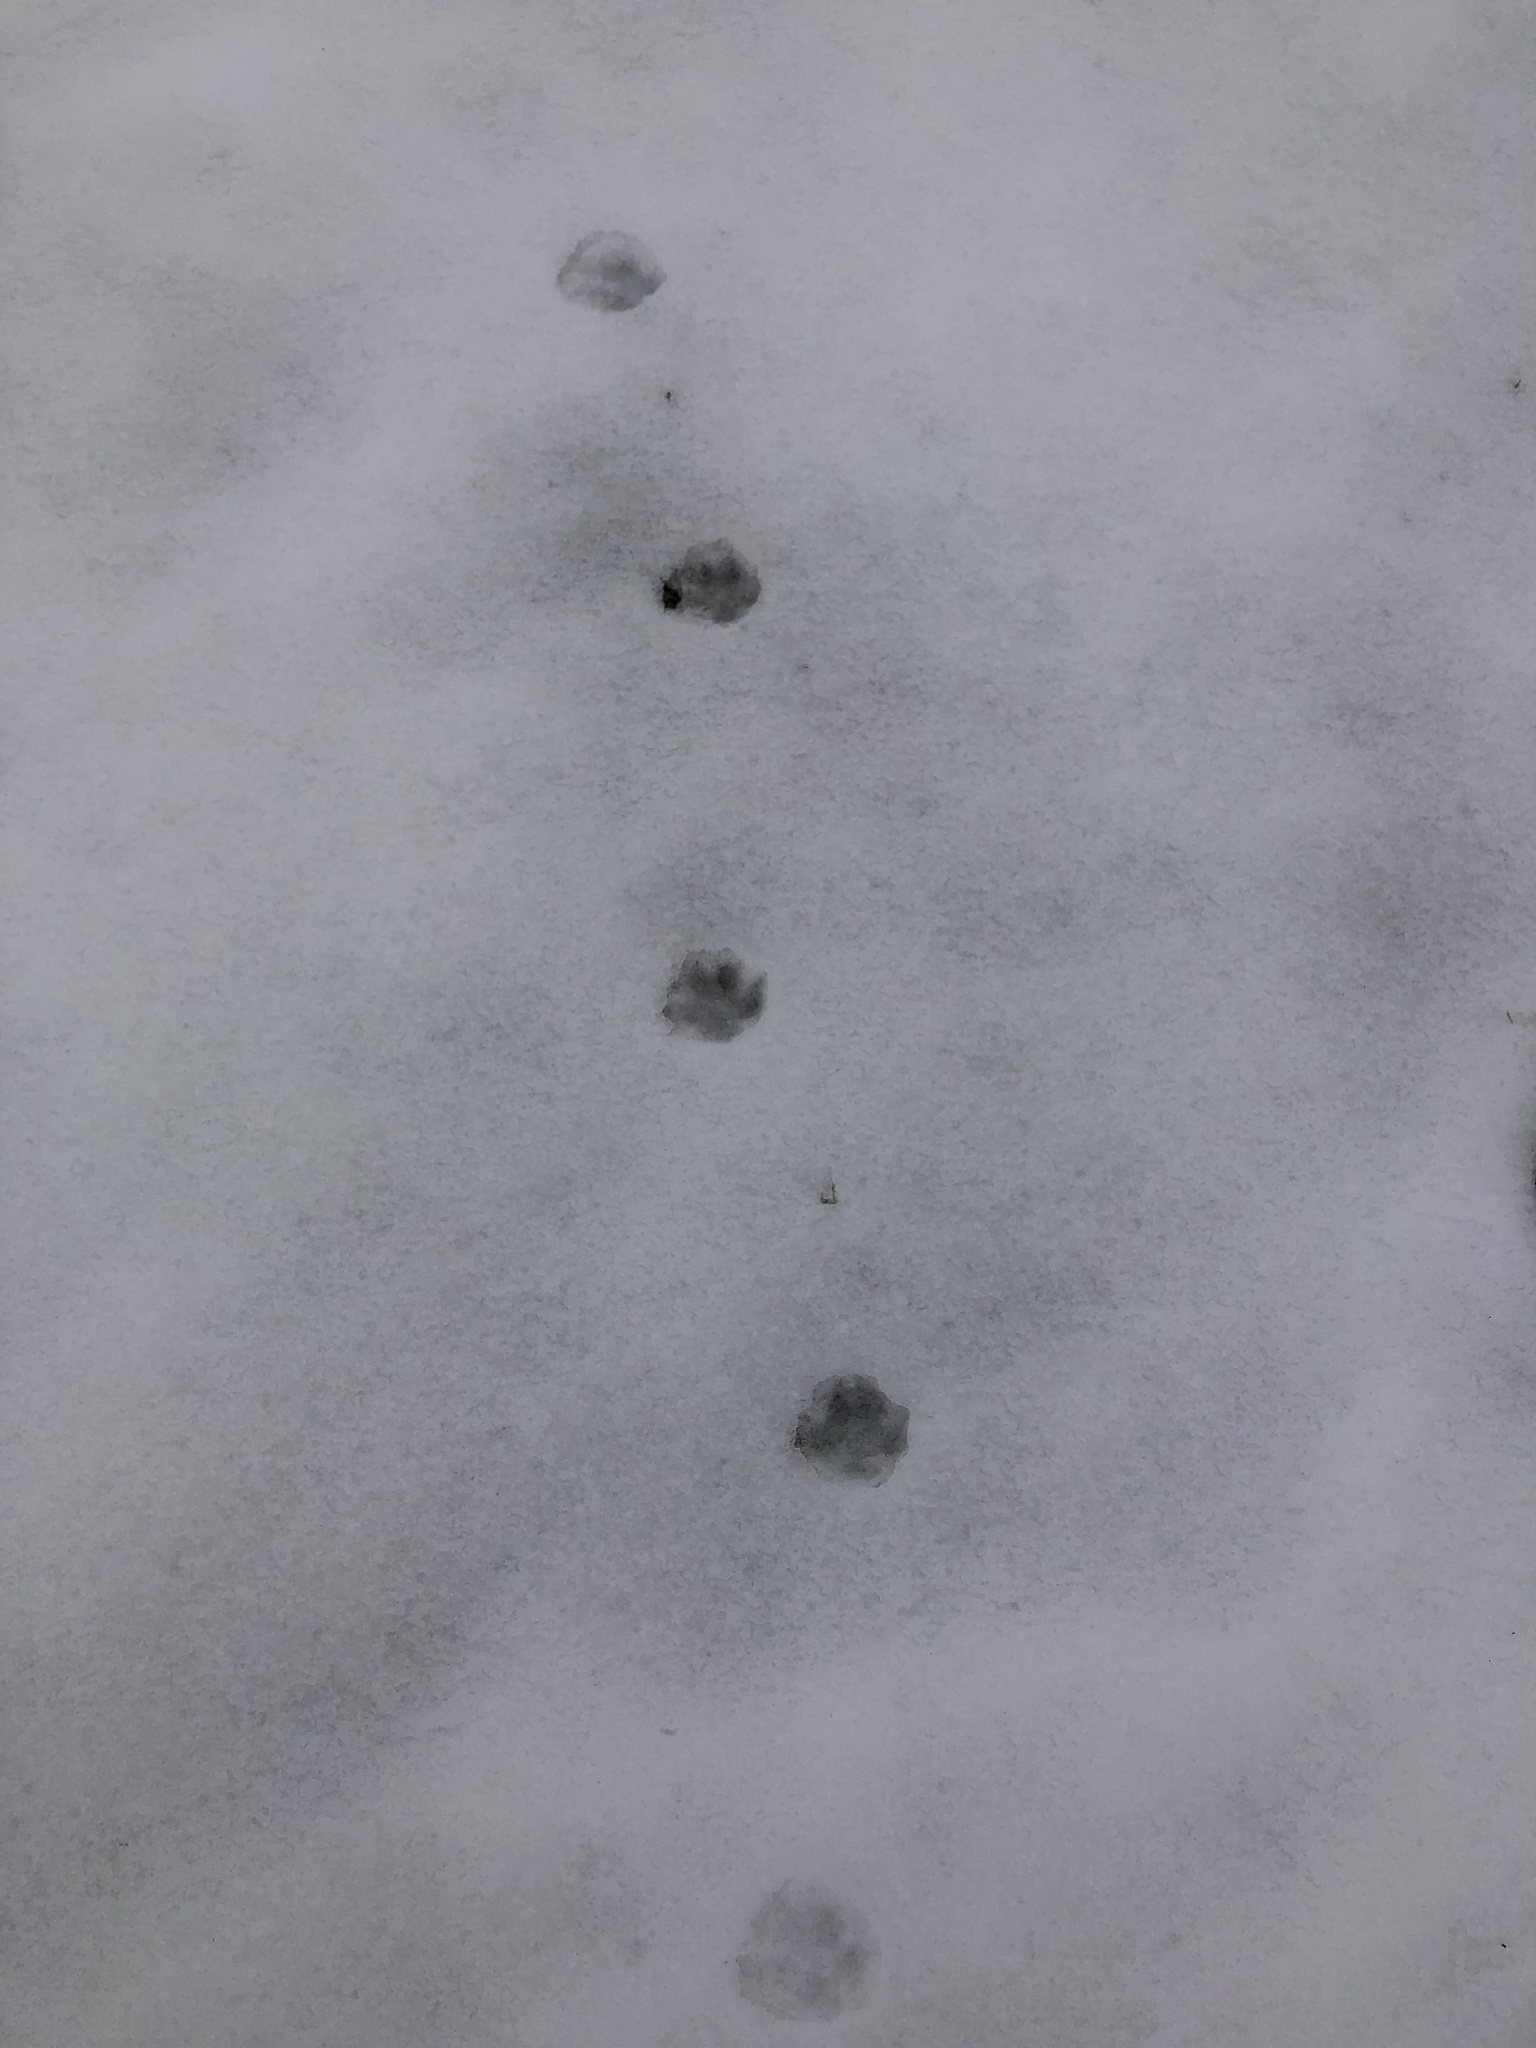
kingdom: Animalia
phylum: Chordata
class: Mammalia
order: Carnivora
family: Canidae
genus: Vulpes
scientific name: Vulpes vulpes
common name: Red fox
